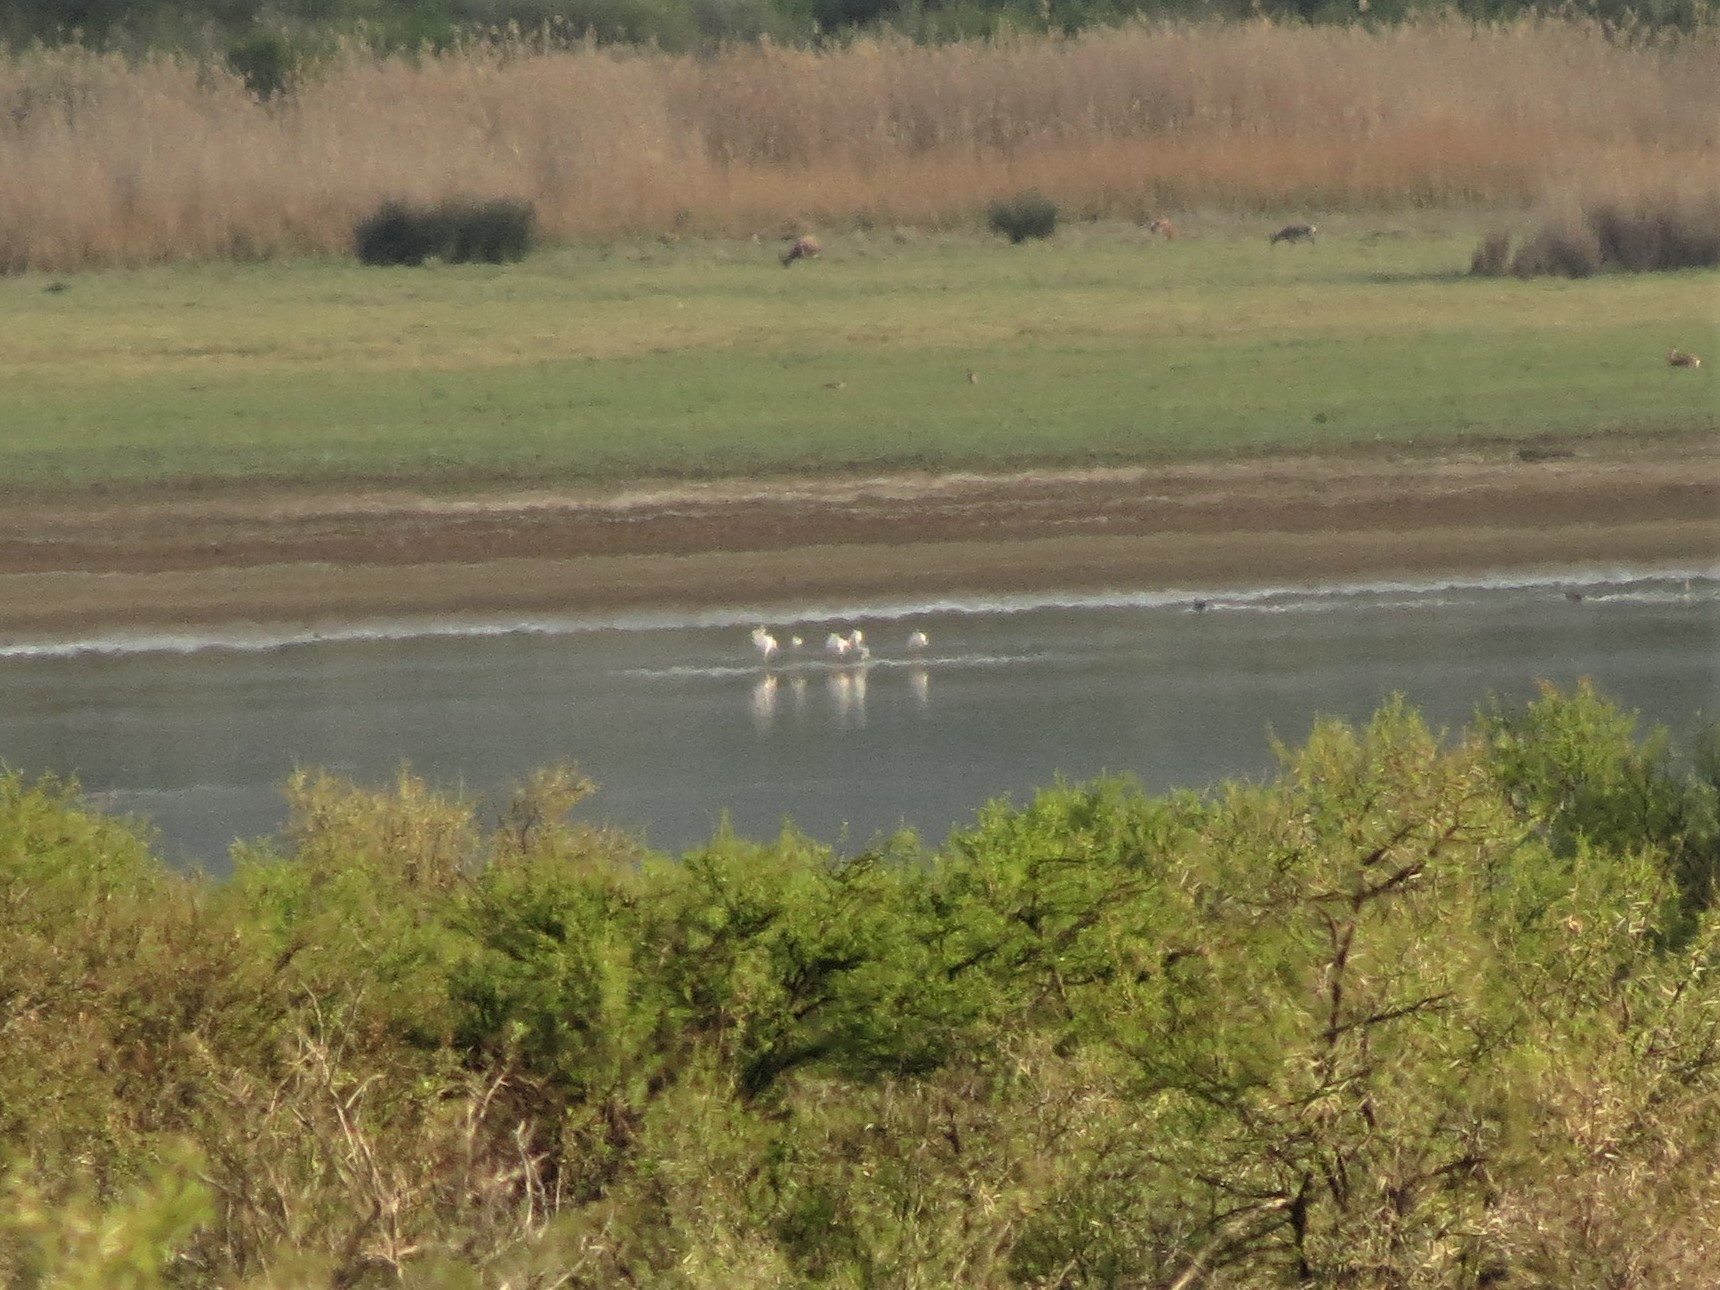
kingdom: Animalia
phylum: Chordata
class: Aves
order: Phoenicopteriformes
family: Phoenicopteridae
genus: Phoenicopterus
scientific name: Phoenicopterus roseus
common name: Greater flamingo
